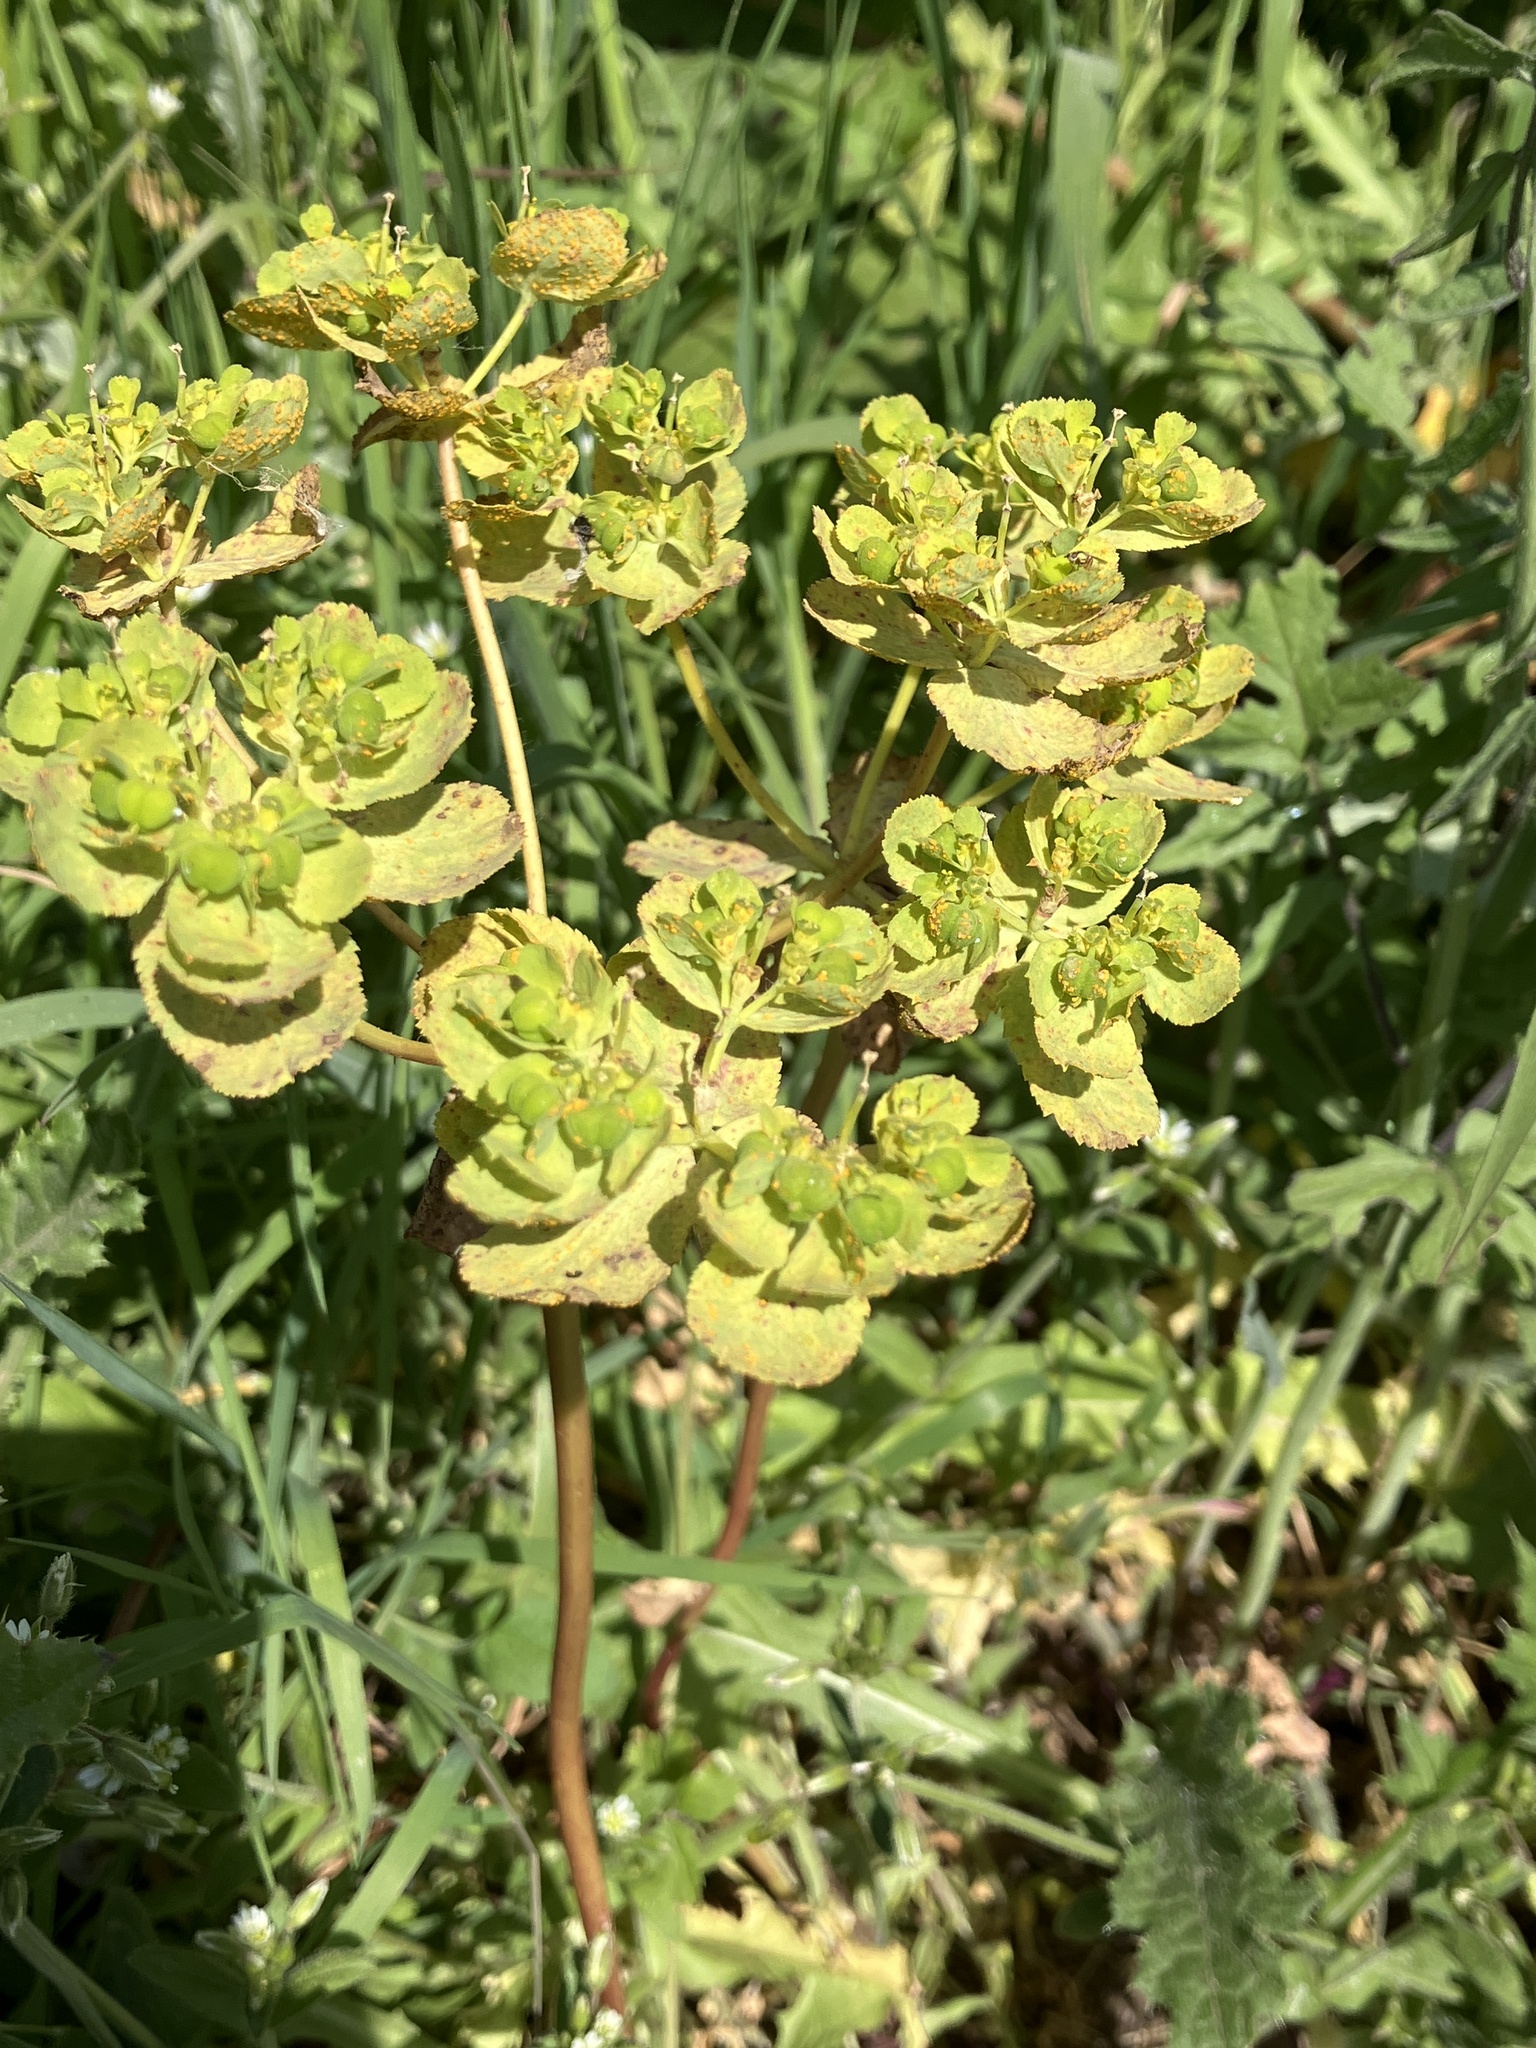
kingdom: Plantae
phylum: Tracheophyta
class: Magnoliopsida
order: Malpighiales
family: Euphorbiaceae
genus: Euphorbia
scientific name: Euphorbia helioscopia
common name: Sun spurge
